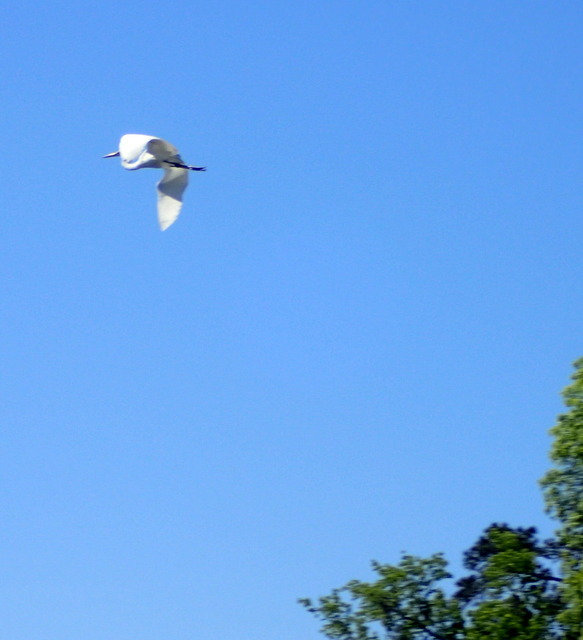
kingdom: Animalia
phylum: Chordata
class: Aves
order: Pelecaniformes
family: Ardeidae
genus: Ardea
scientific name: Ardea alba
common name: Great egret
